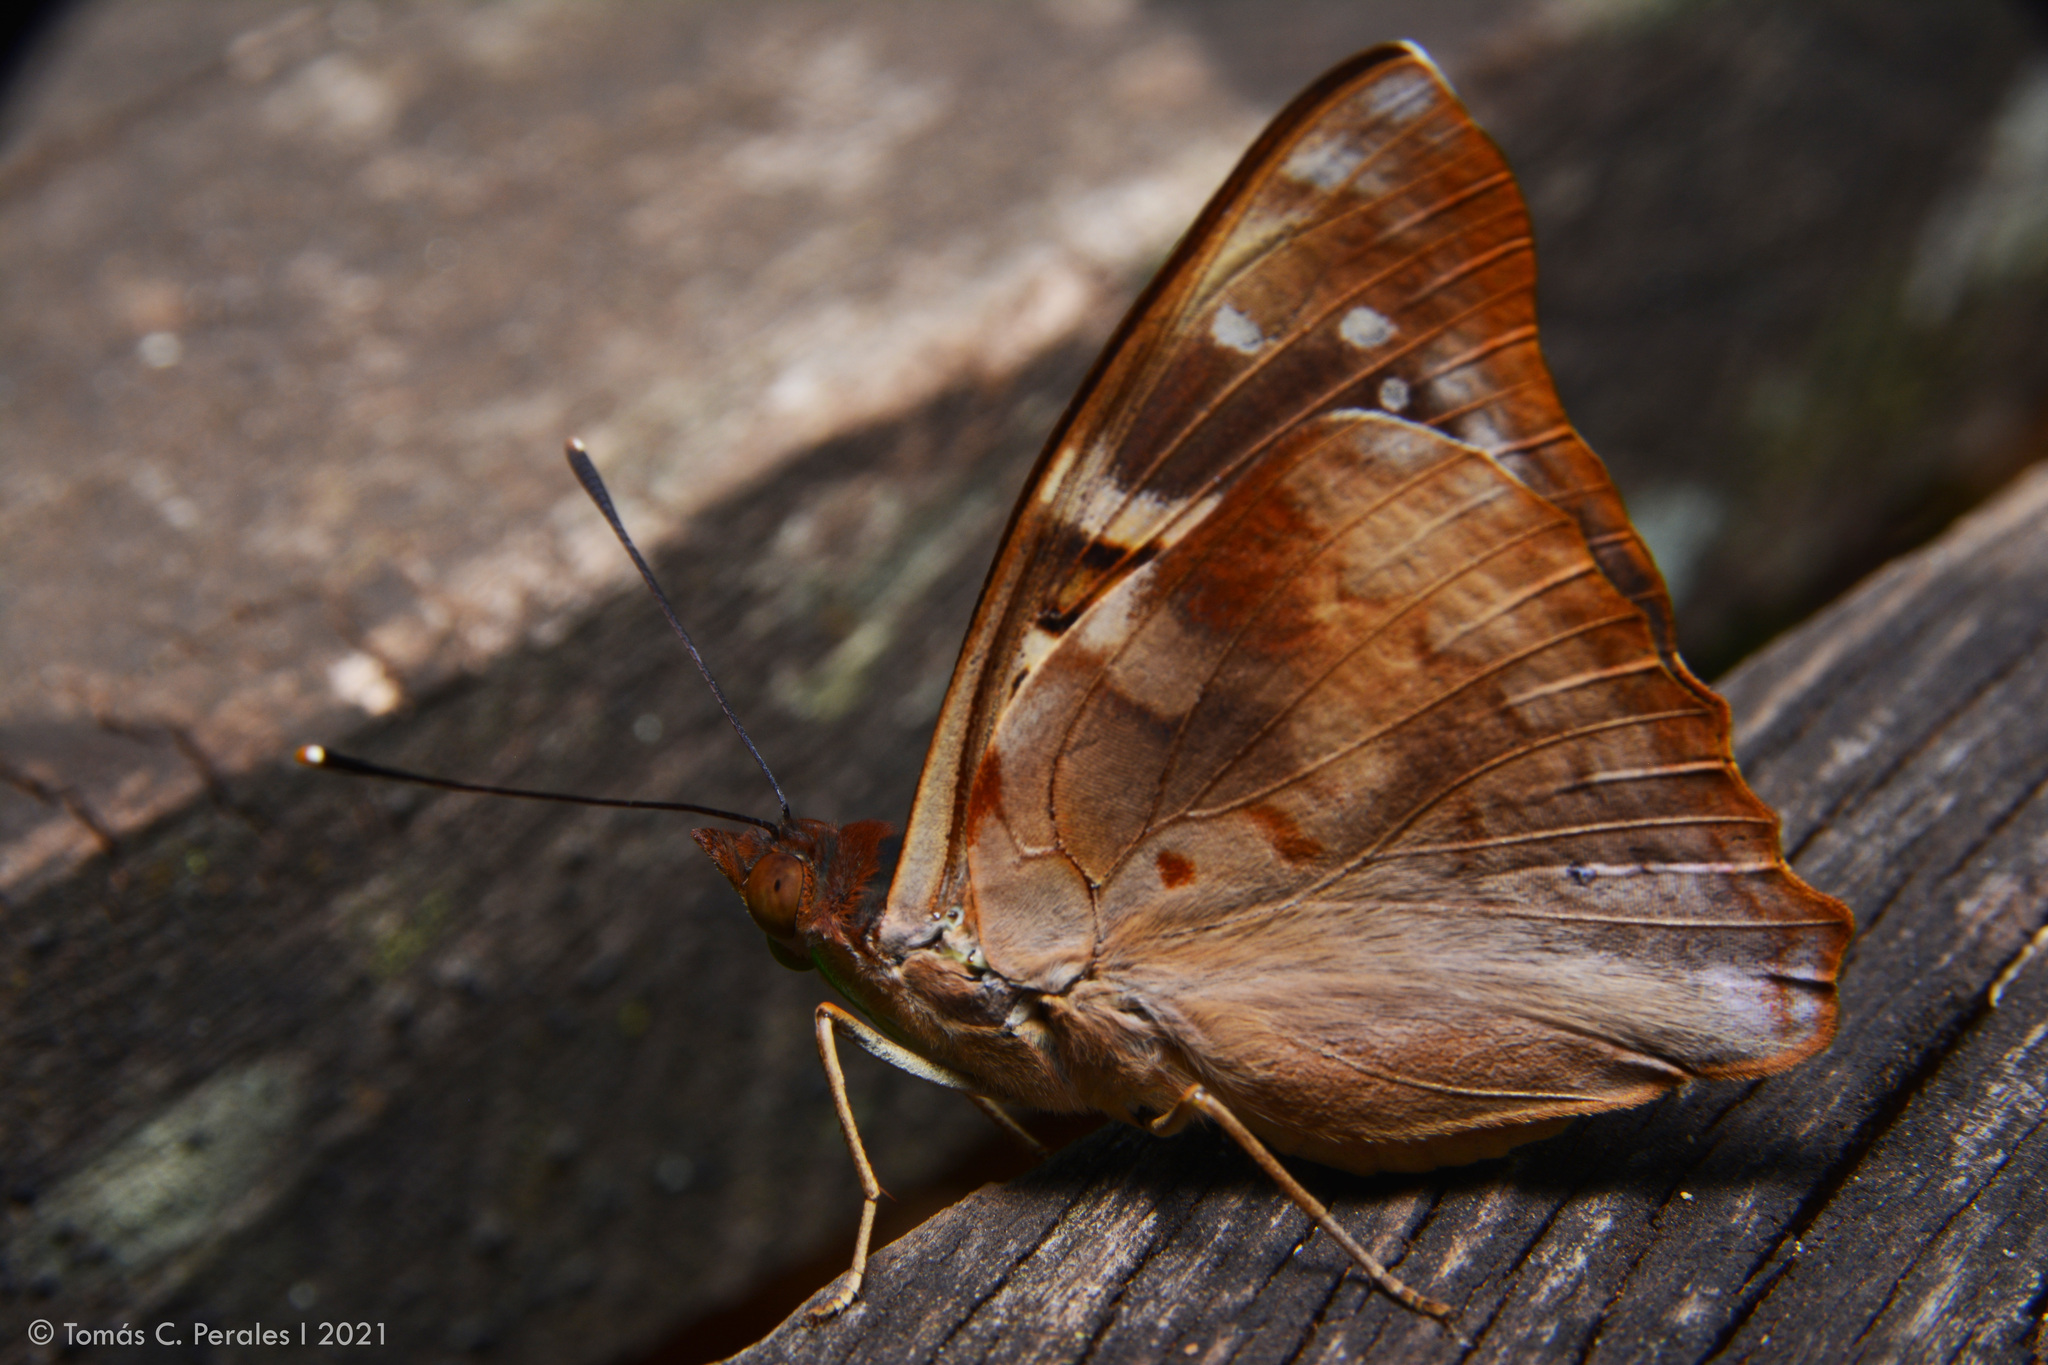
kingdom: Animalia
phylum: Arthropoda
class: Insecta
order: Lepidoptera
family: Nymphalidae
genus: Doxocopa
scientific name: Doxocopa kallina
